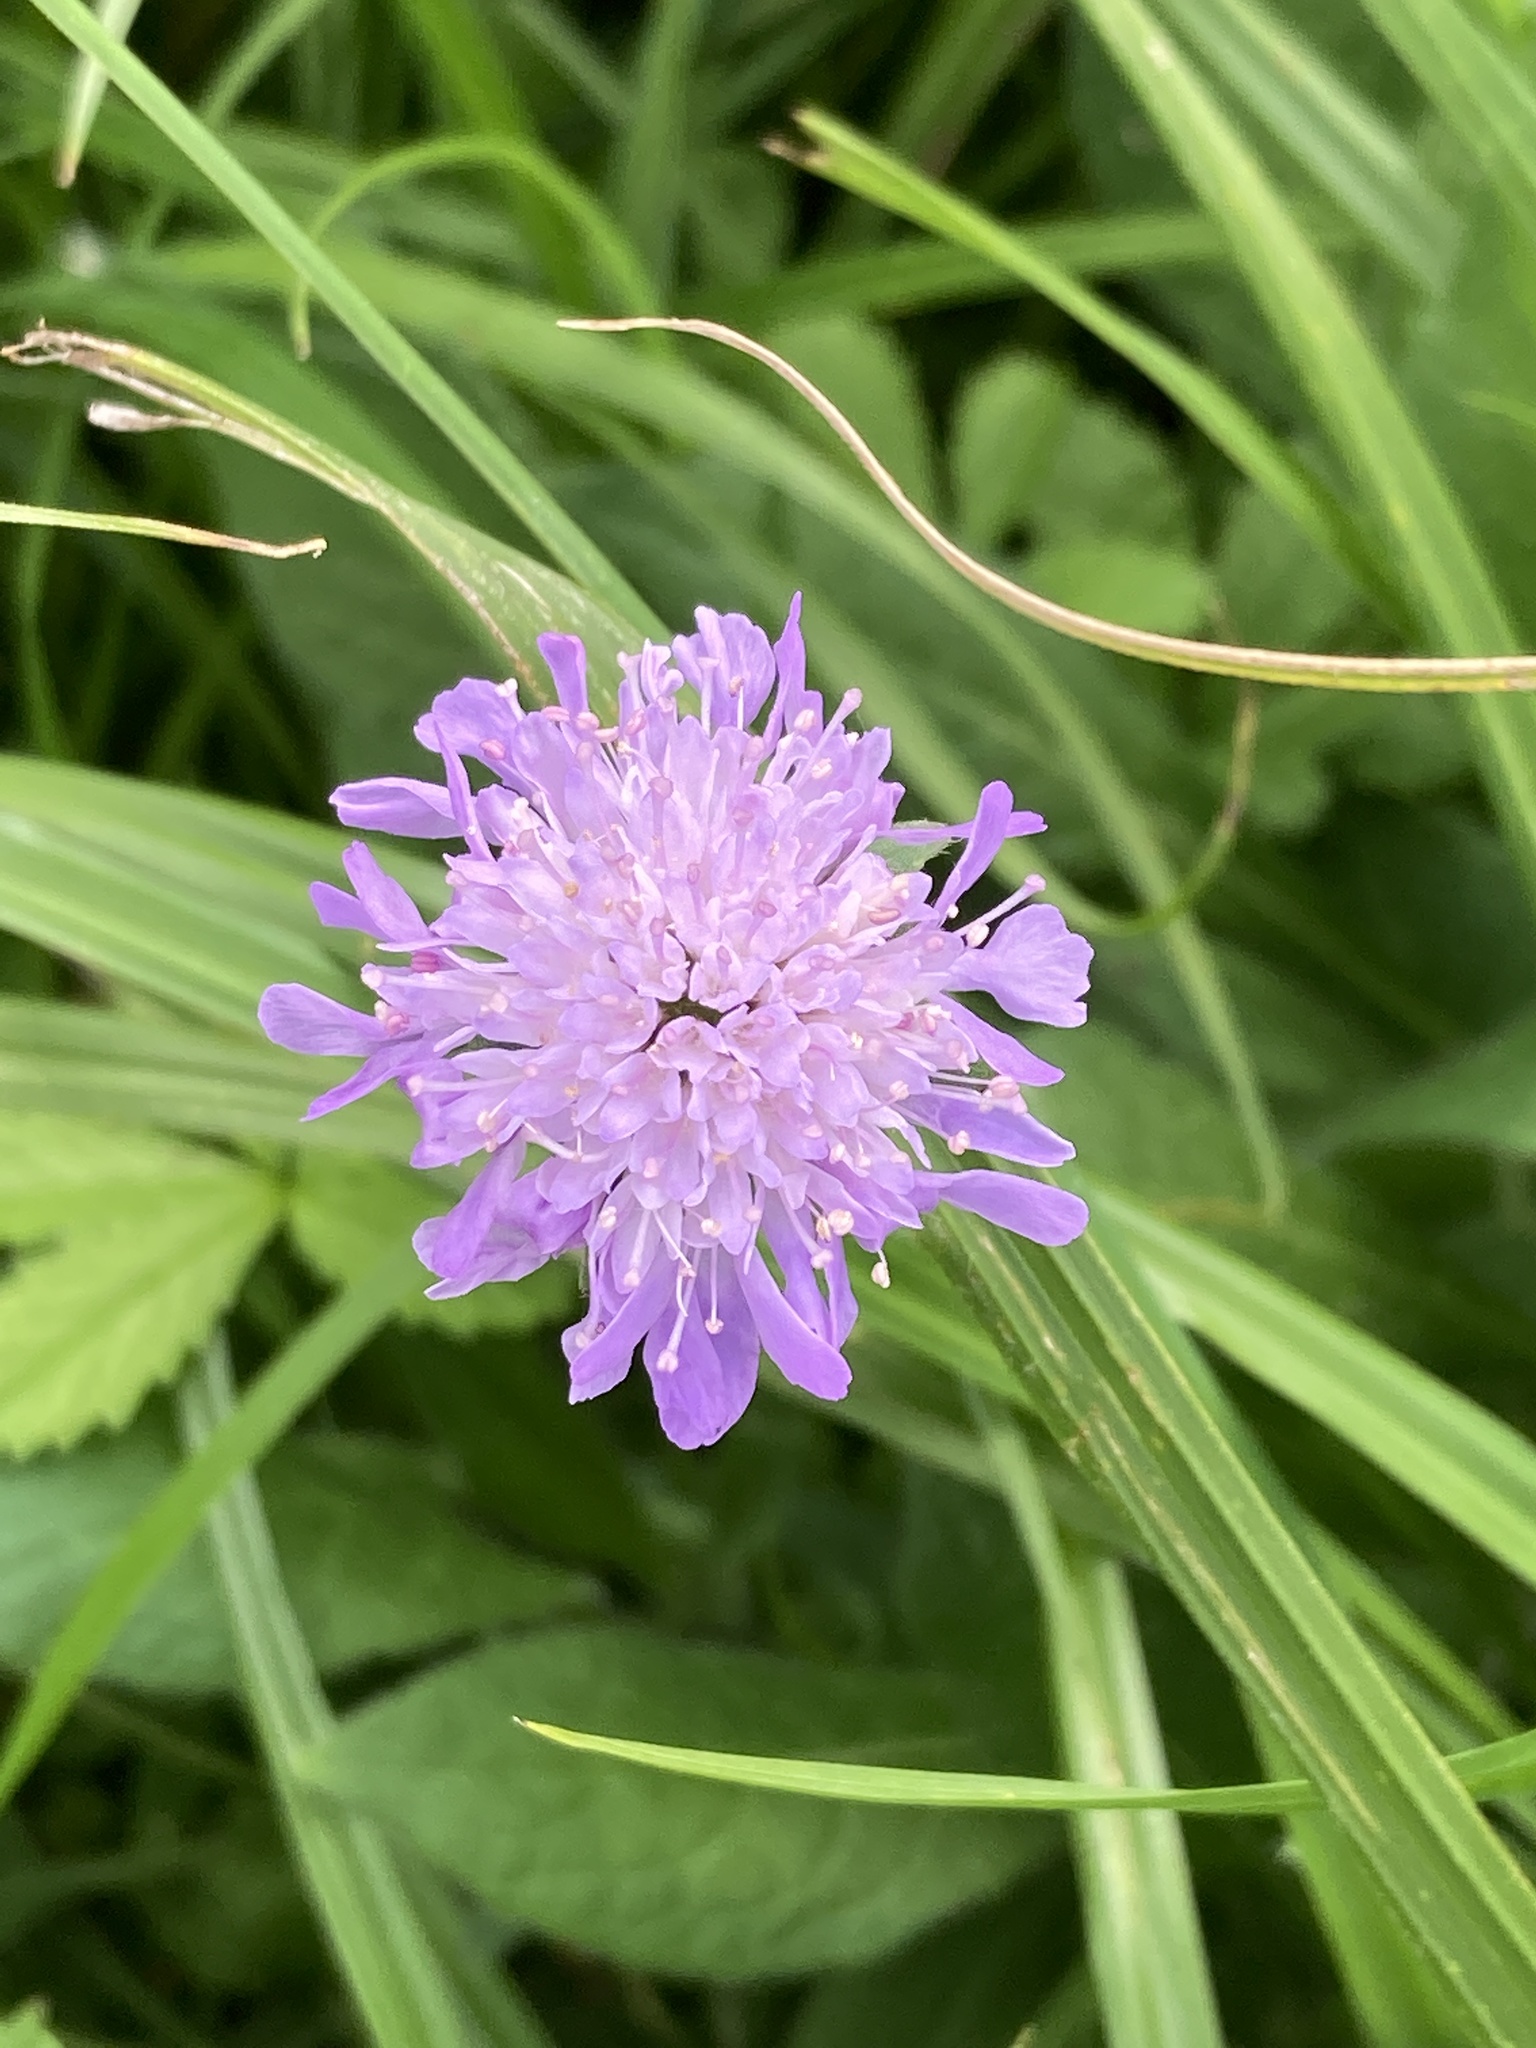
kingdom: Plantae
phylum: Tracheophyta
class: Magnoliopsida
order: Dipsacales
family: Caprifoliaceae
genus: Knautia
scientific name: Knautia arvensis
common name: Field scabiosa
